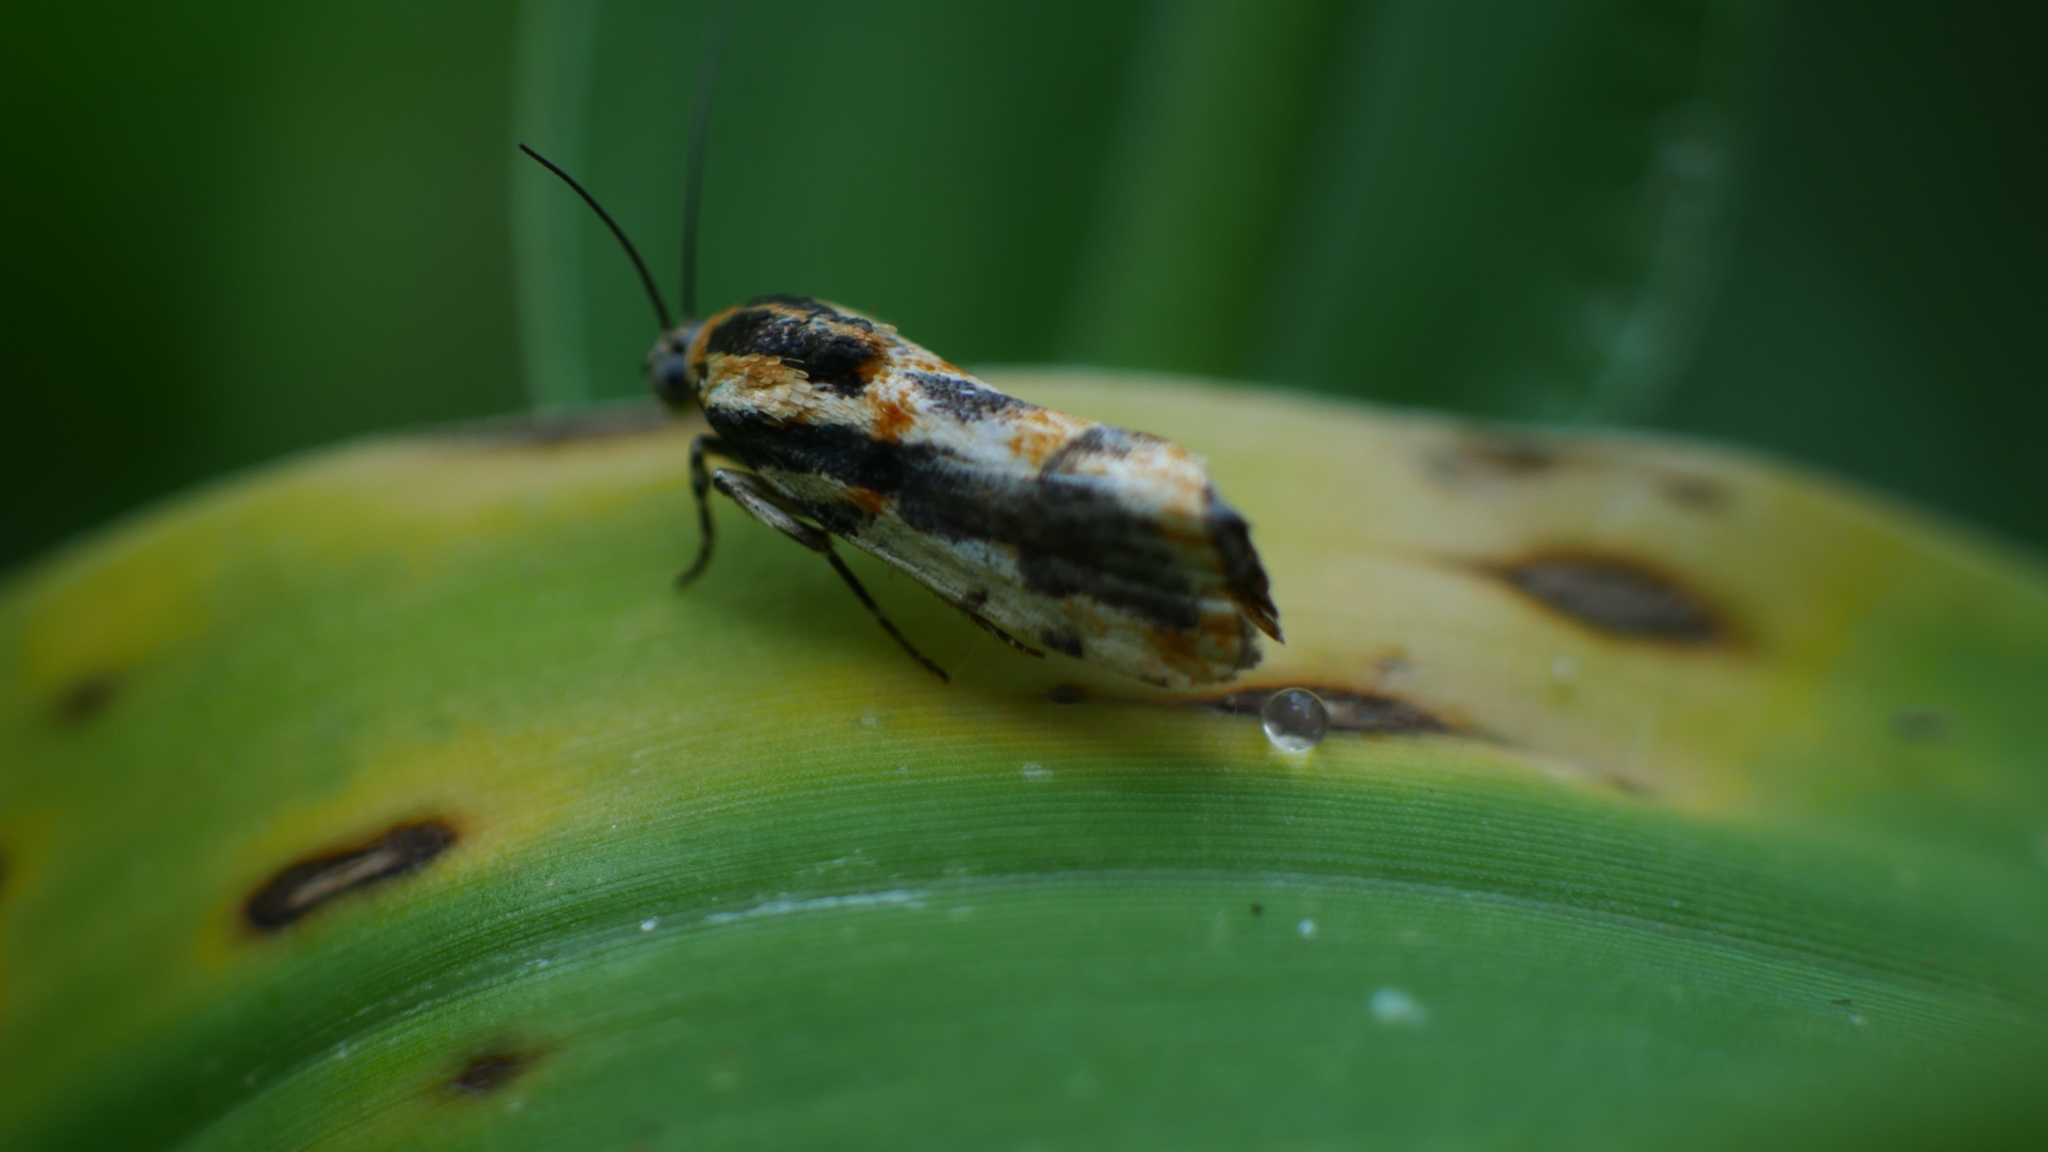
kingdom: Animalia
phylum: Arthropoda
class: Insecta
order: Lepidoptera
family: Noctuidae
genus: Acontia
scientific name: Acontia leo
